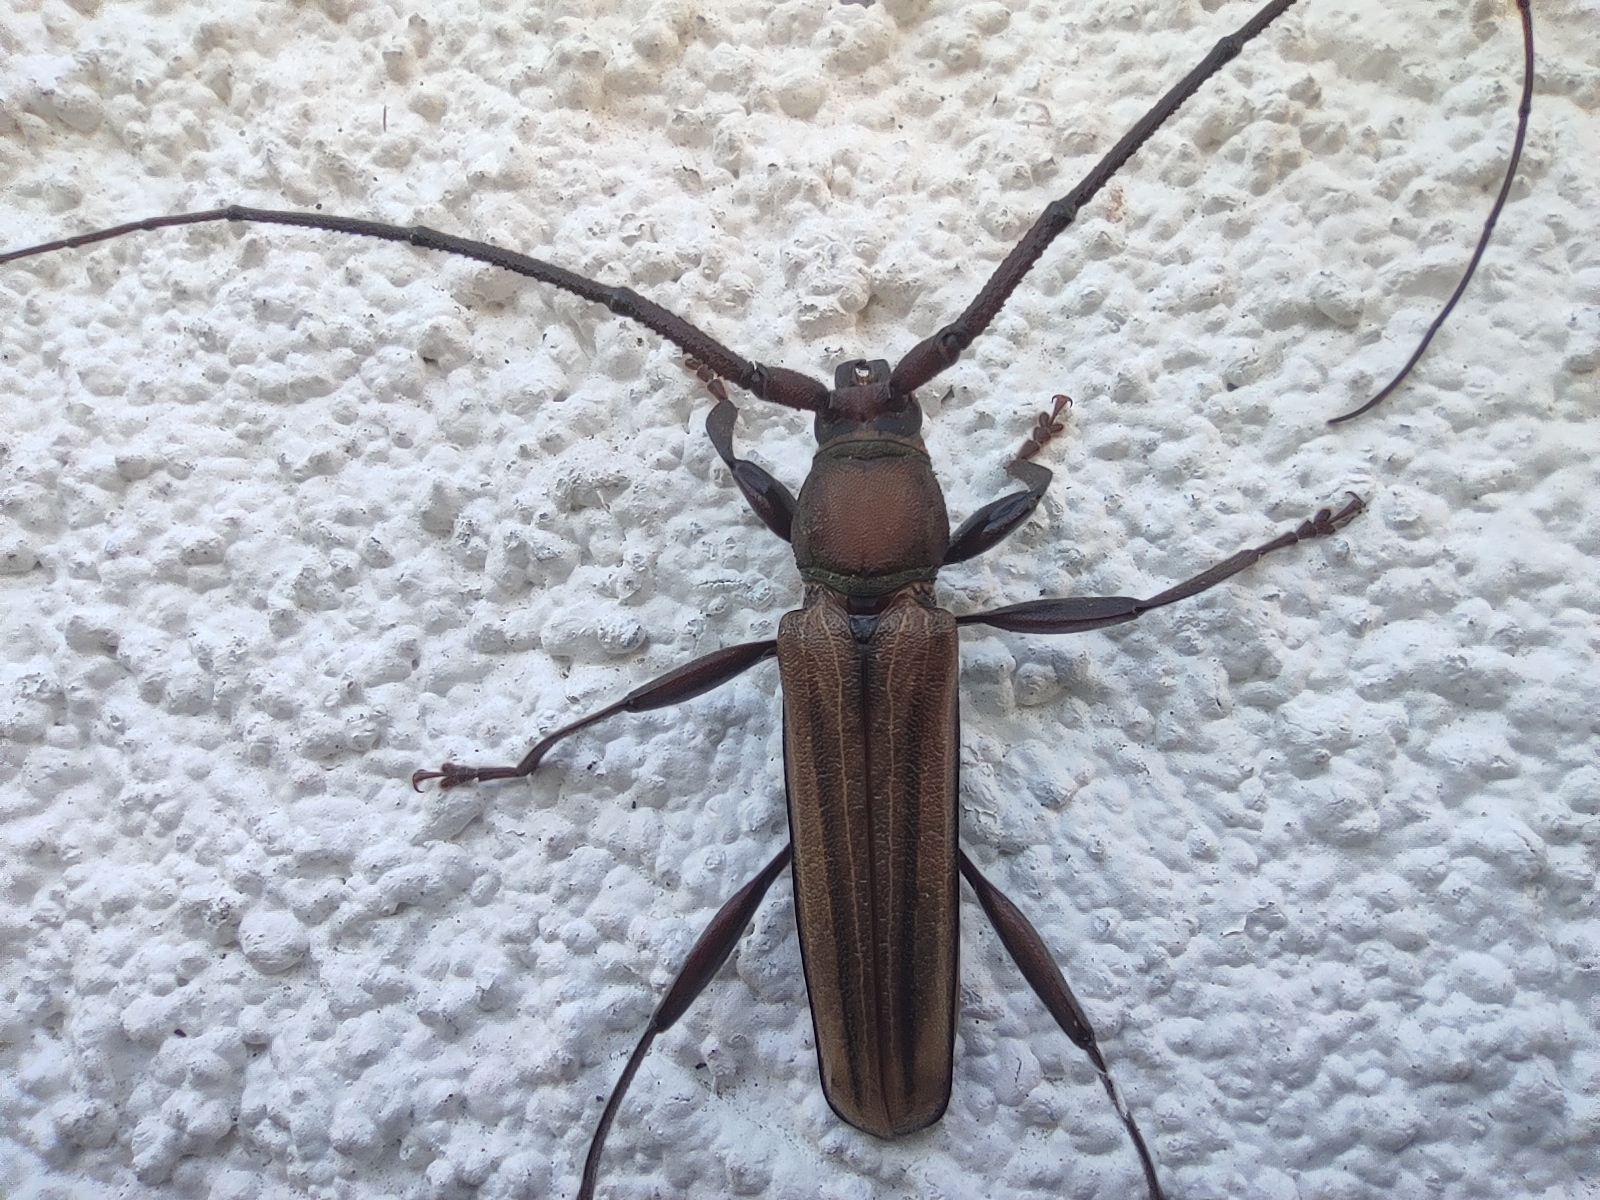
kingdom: Animalia
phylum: Arthropoda
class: Insecta
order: Coleoptera
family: Cerambycidae
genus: Xystrocera
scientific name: Xystrocera globosa
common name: Peach-tree longhorn
